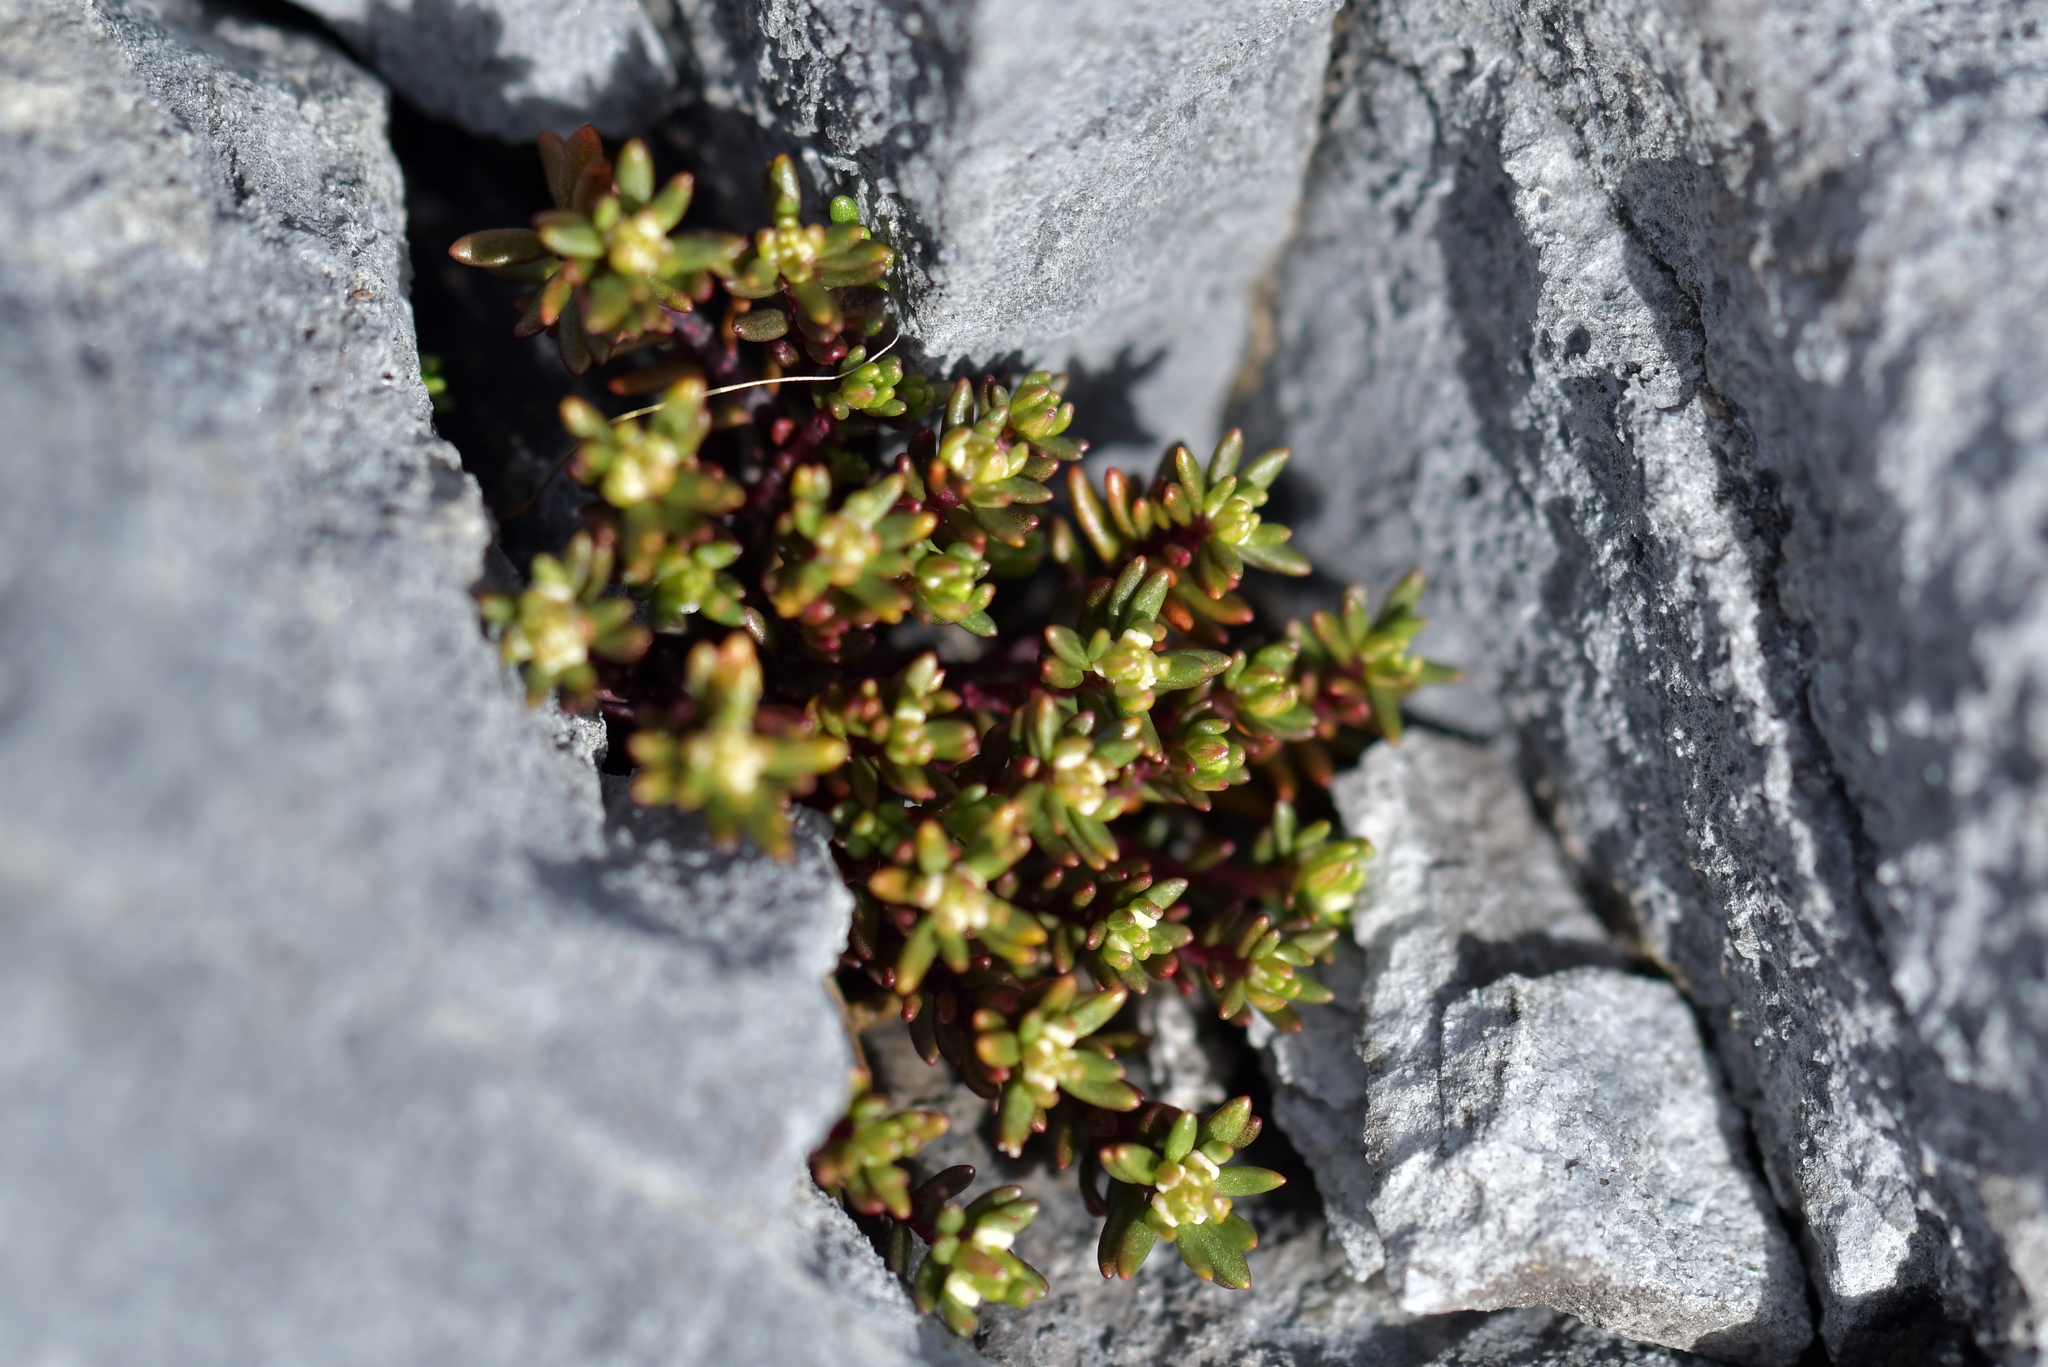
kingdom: Plantae
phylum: Tracheophyta
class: Magnoliopsida
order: Malpighiales
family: Phyllanthaceae
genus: Poranthera
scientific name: Poranthera alpina
